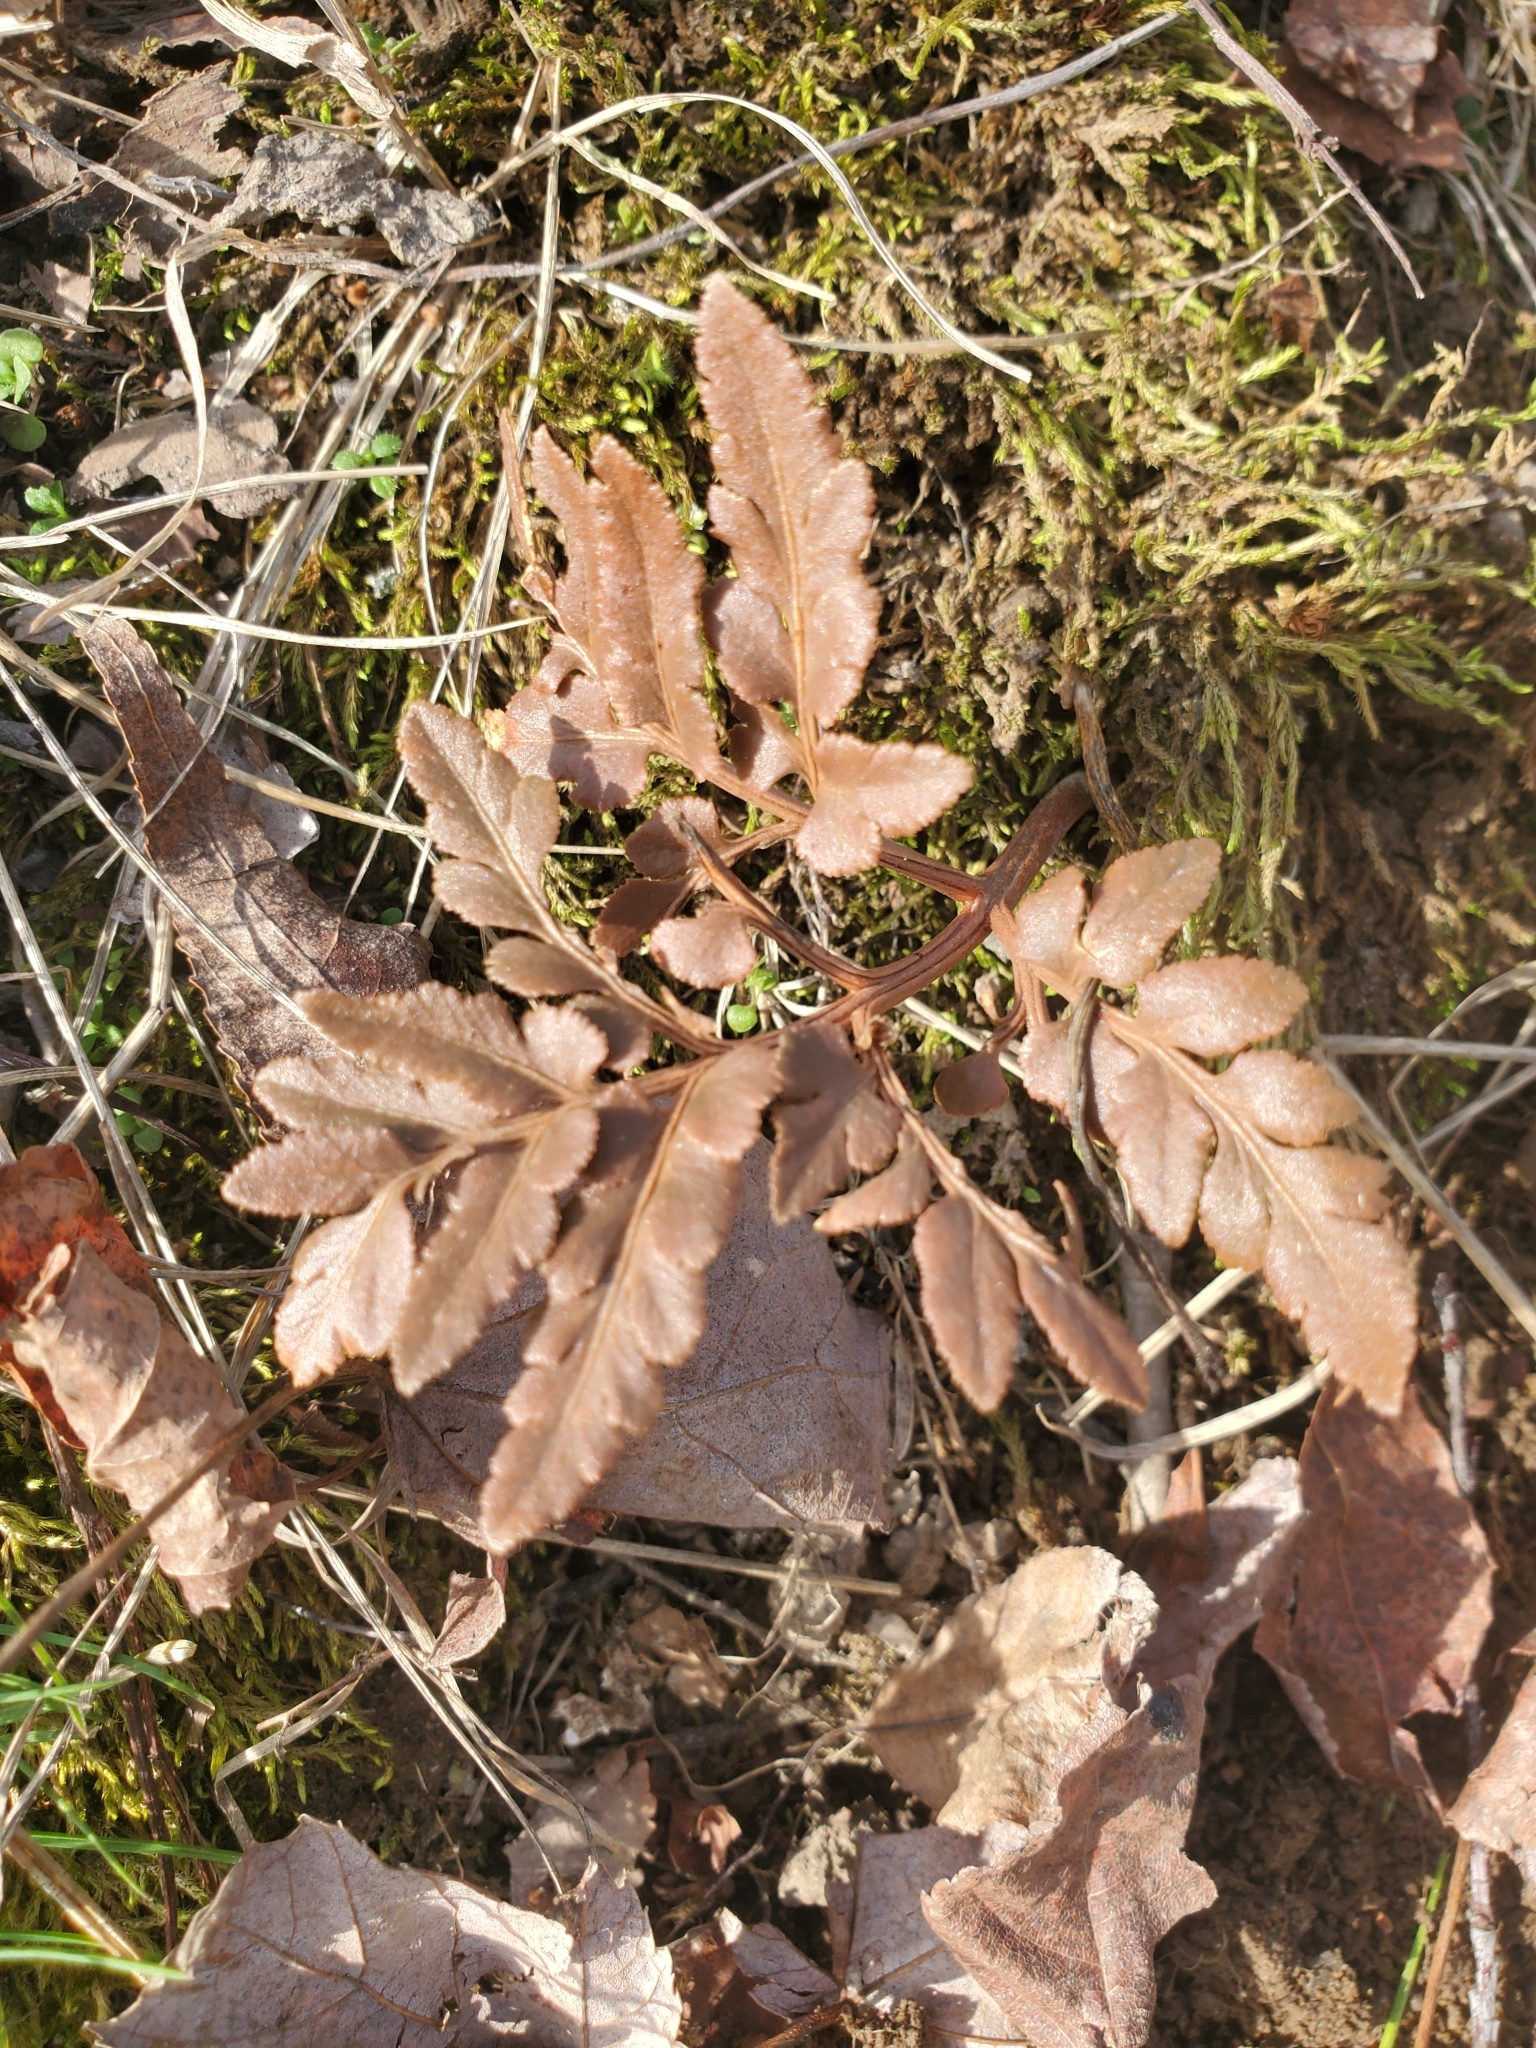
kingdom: Plantae
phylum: Tracheophyta
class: Polypodiopsida
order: Ophioglossales
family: Ophioglossaceae
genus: Sceptridium
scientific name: Sceptridium dissectum
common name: Cut-leaved grapefern
